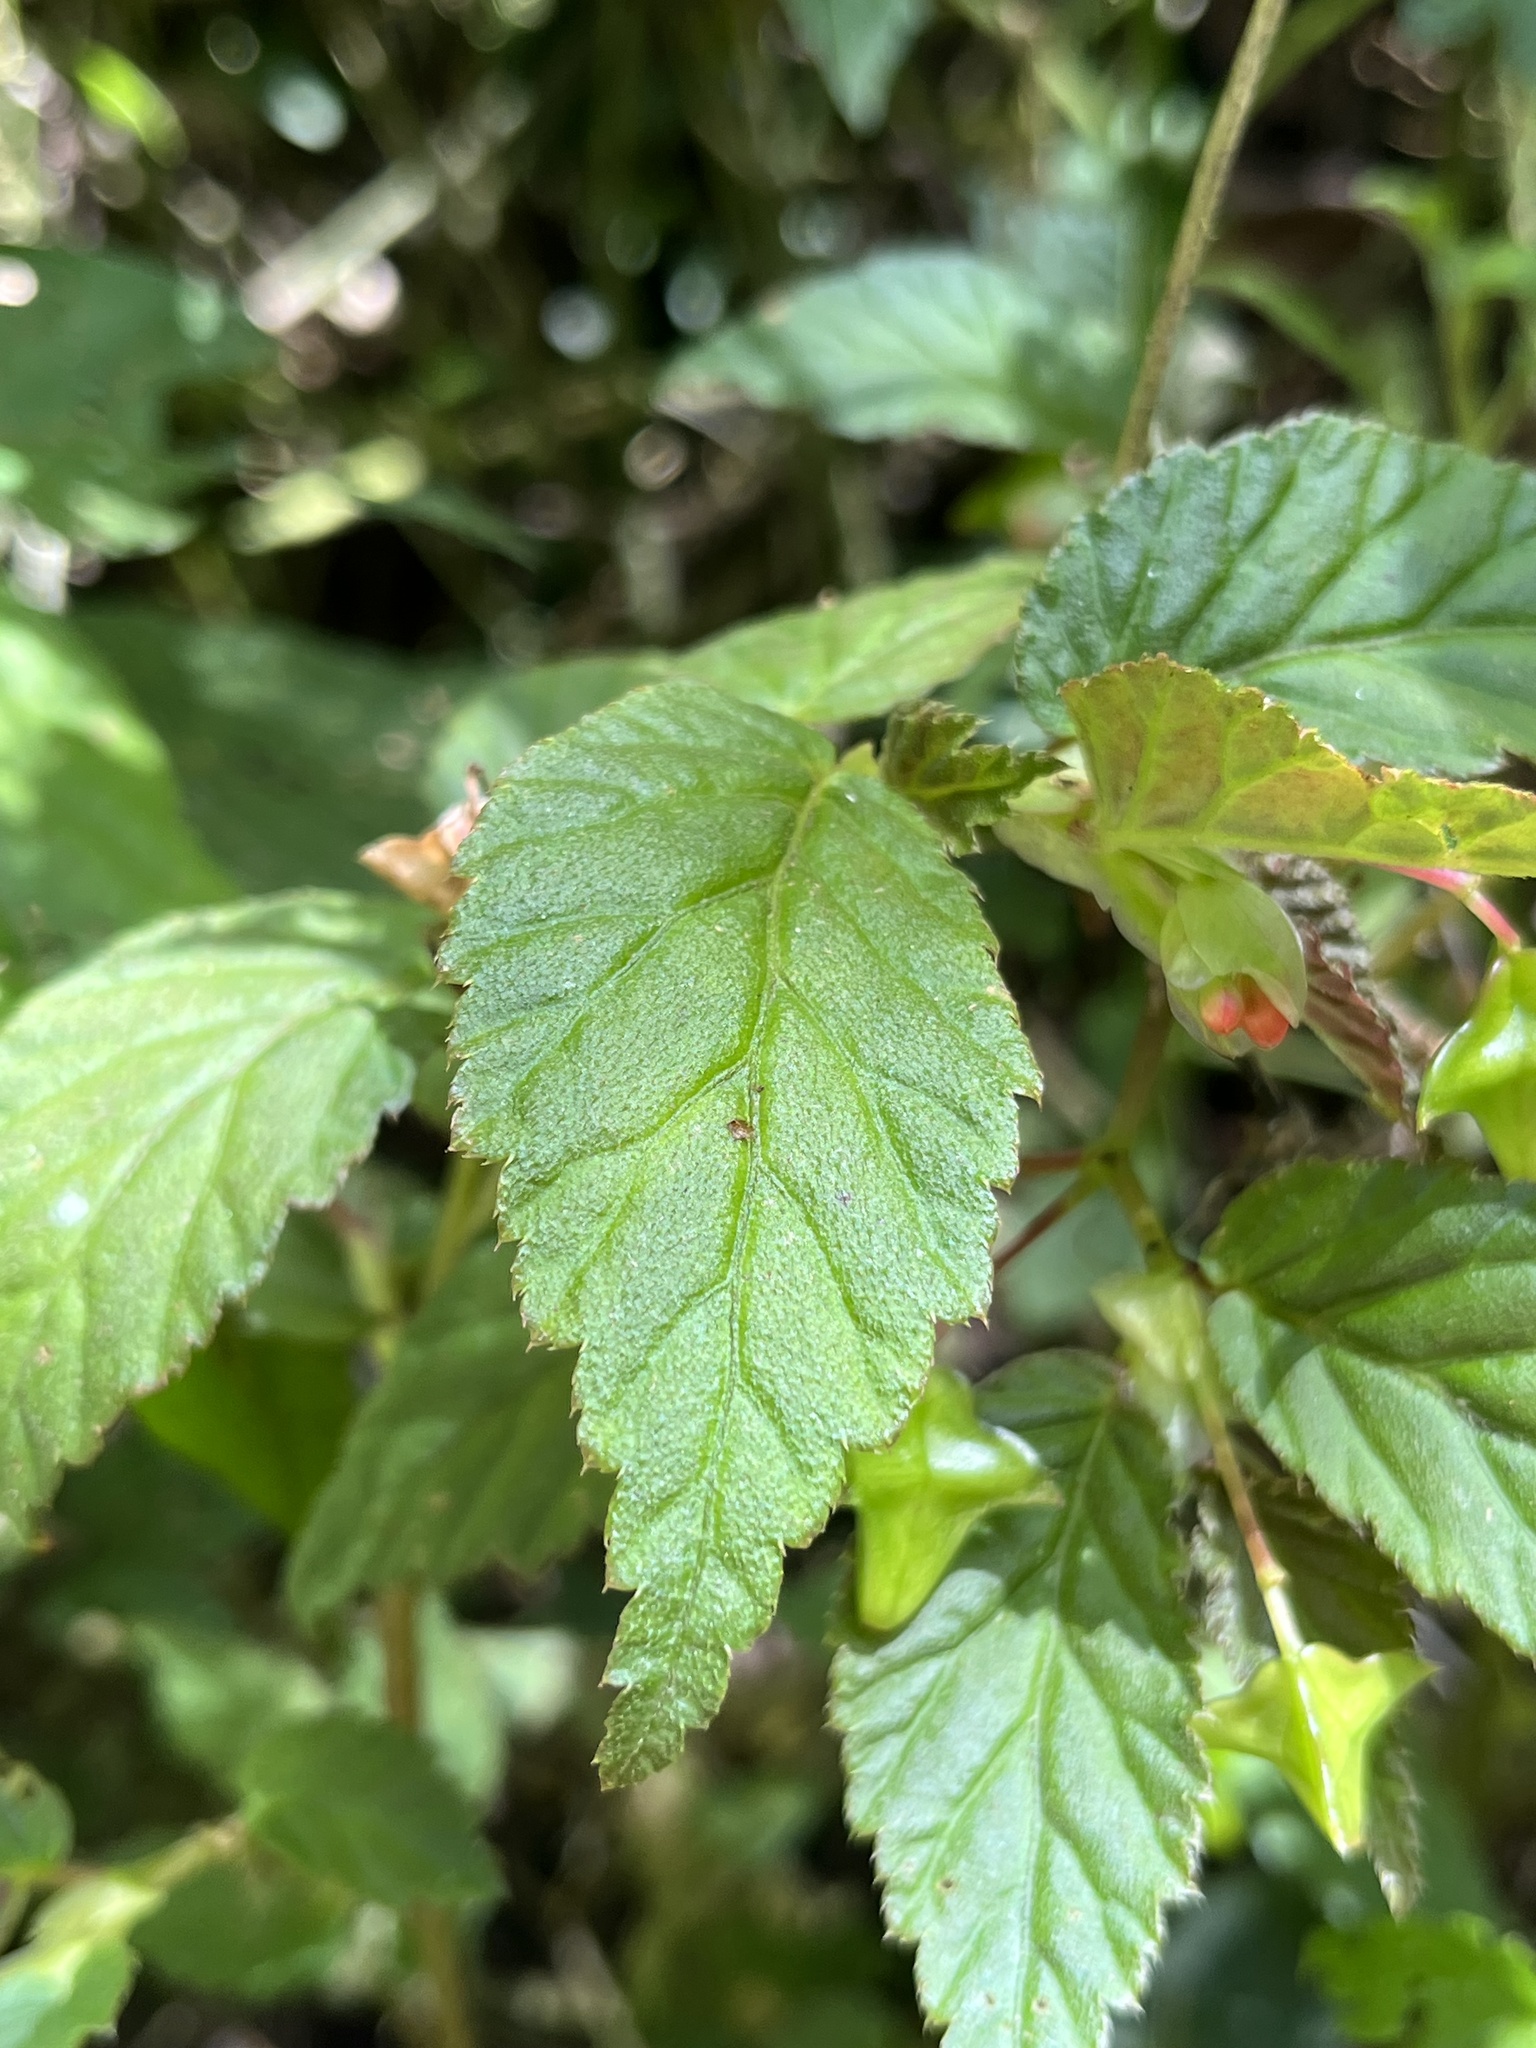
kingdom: Plantae
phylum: Tracheophyta
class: Magnoliopsida
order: Cucurbitales
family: Begoniaceae
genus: Begonia
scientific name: Begonia urticae
